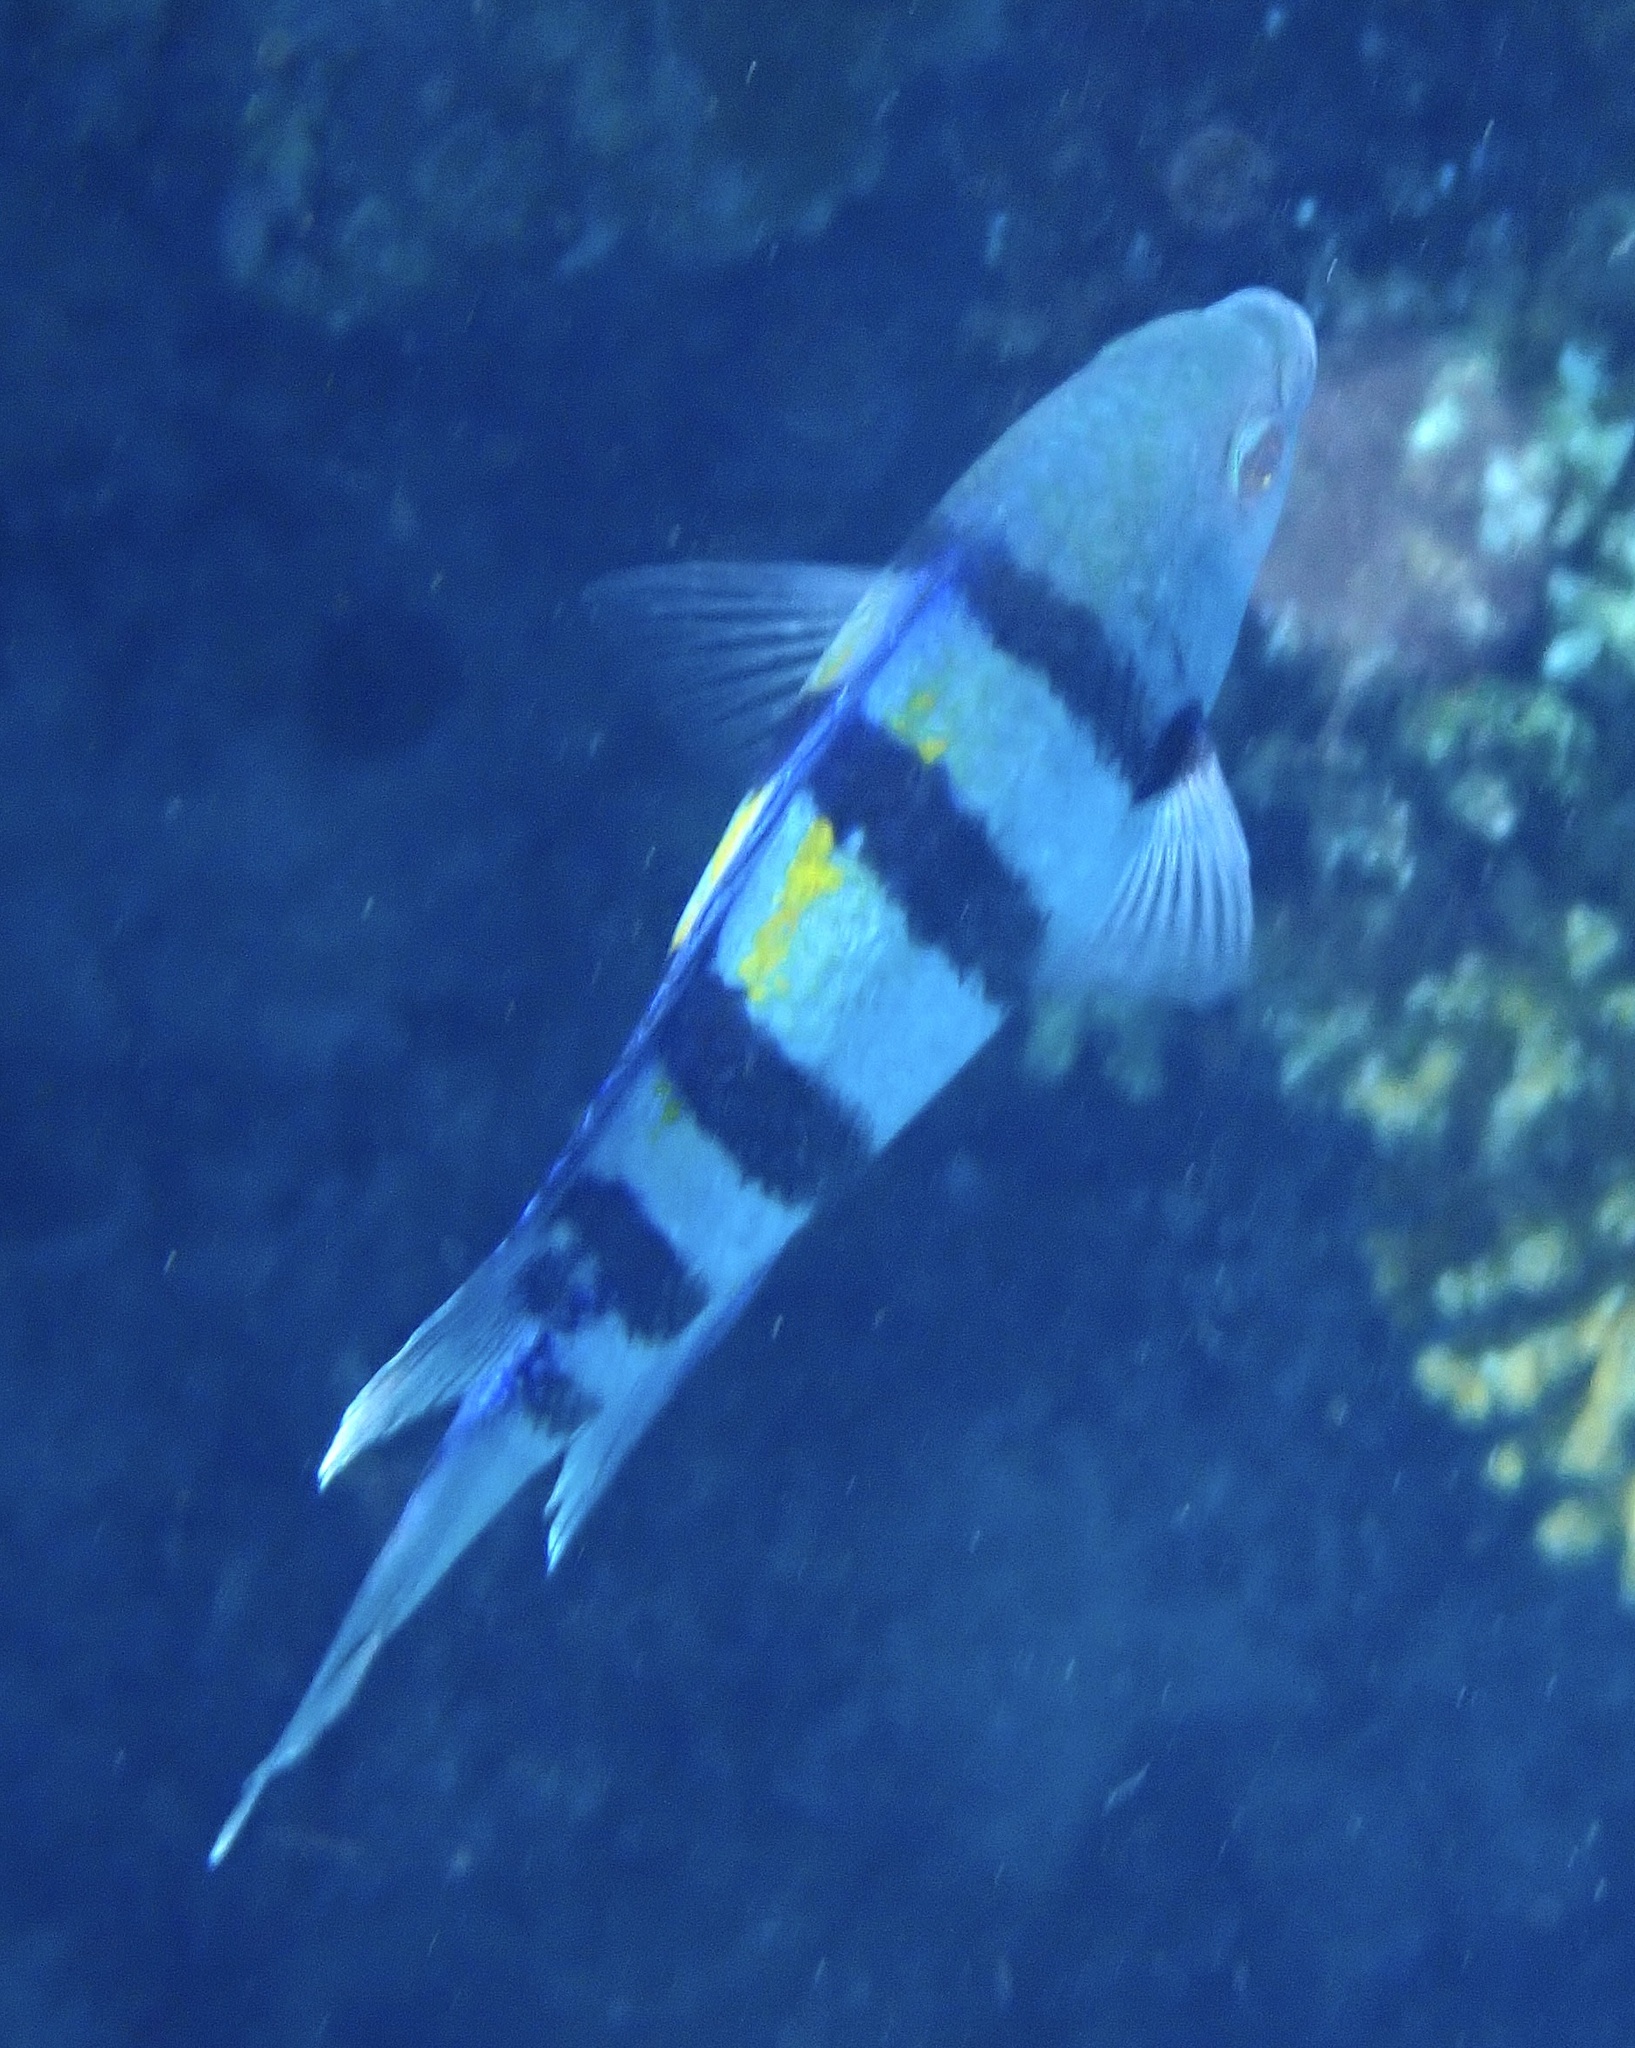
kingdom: Animalia
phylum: Chordata
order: Perciformes
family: Pomacentridae
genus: Abudefduf
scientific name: Abudefduf vaigiensis
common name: Indo-pacific sergeant
